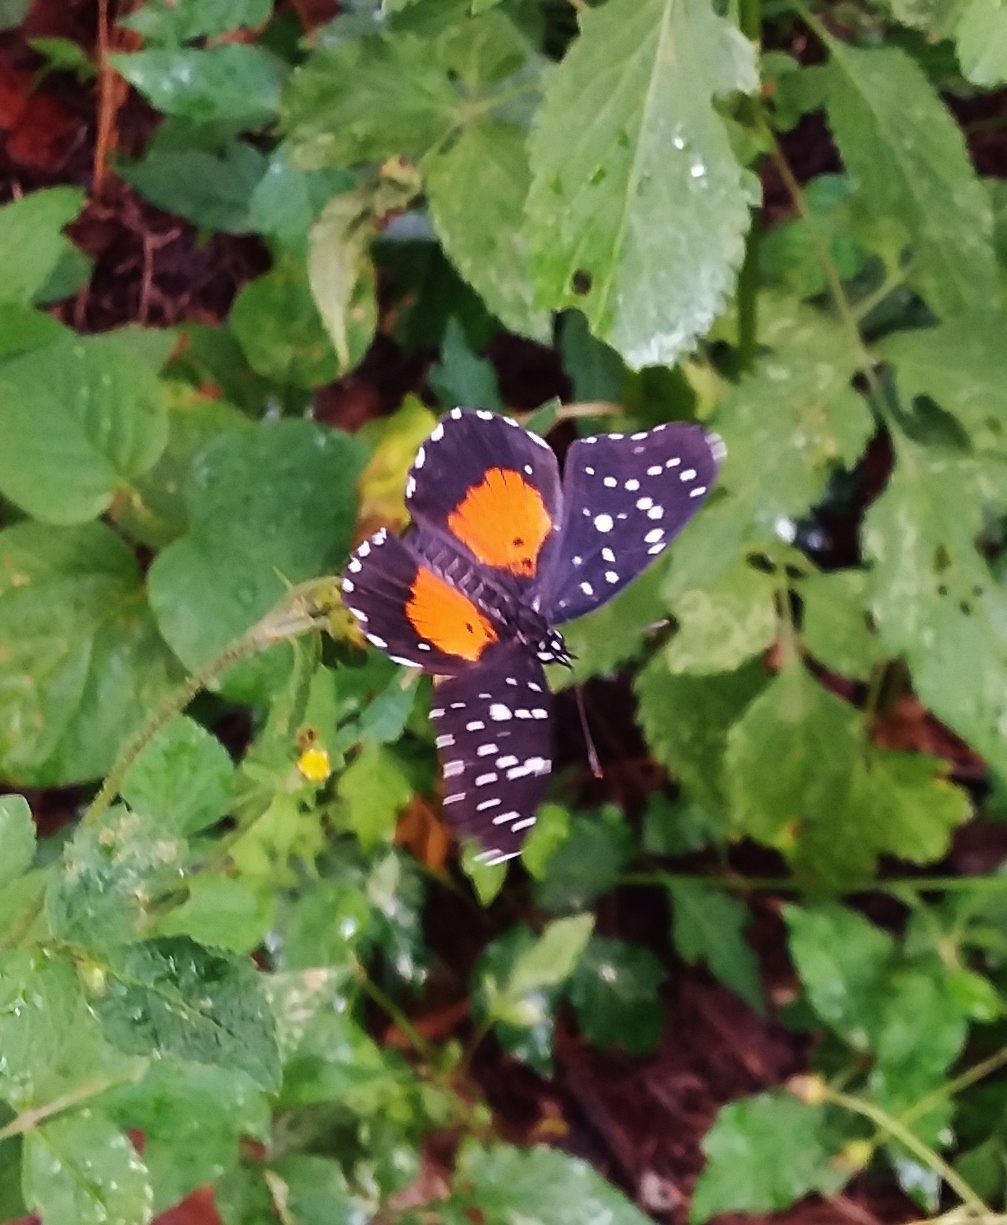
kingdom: Animalia
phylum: Arthropoda
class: Insecta
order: Lepidoptera
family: Nymphalidae
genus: Chlosyne
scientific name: Chlosyne janais
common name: Crimson patch
